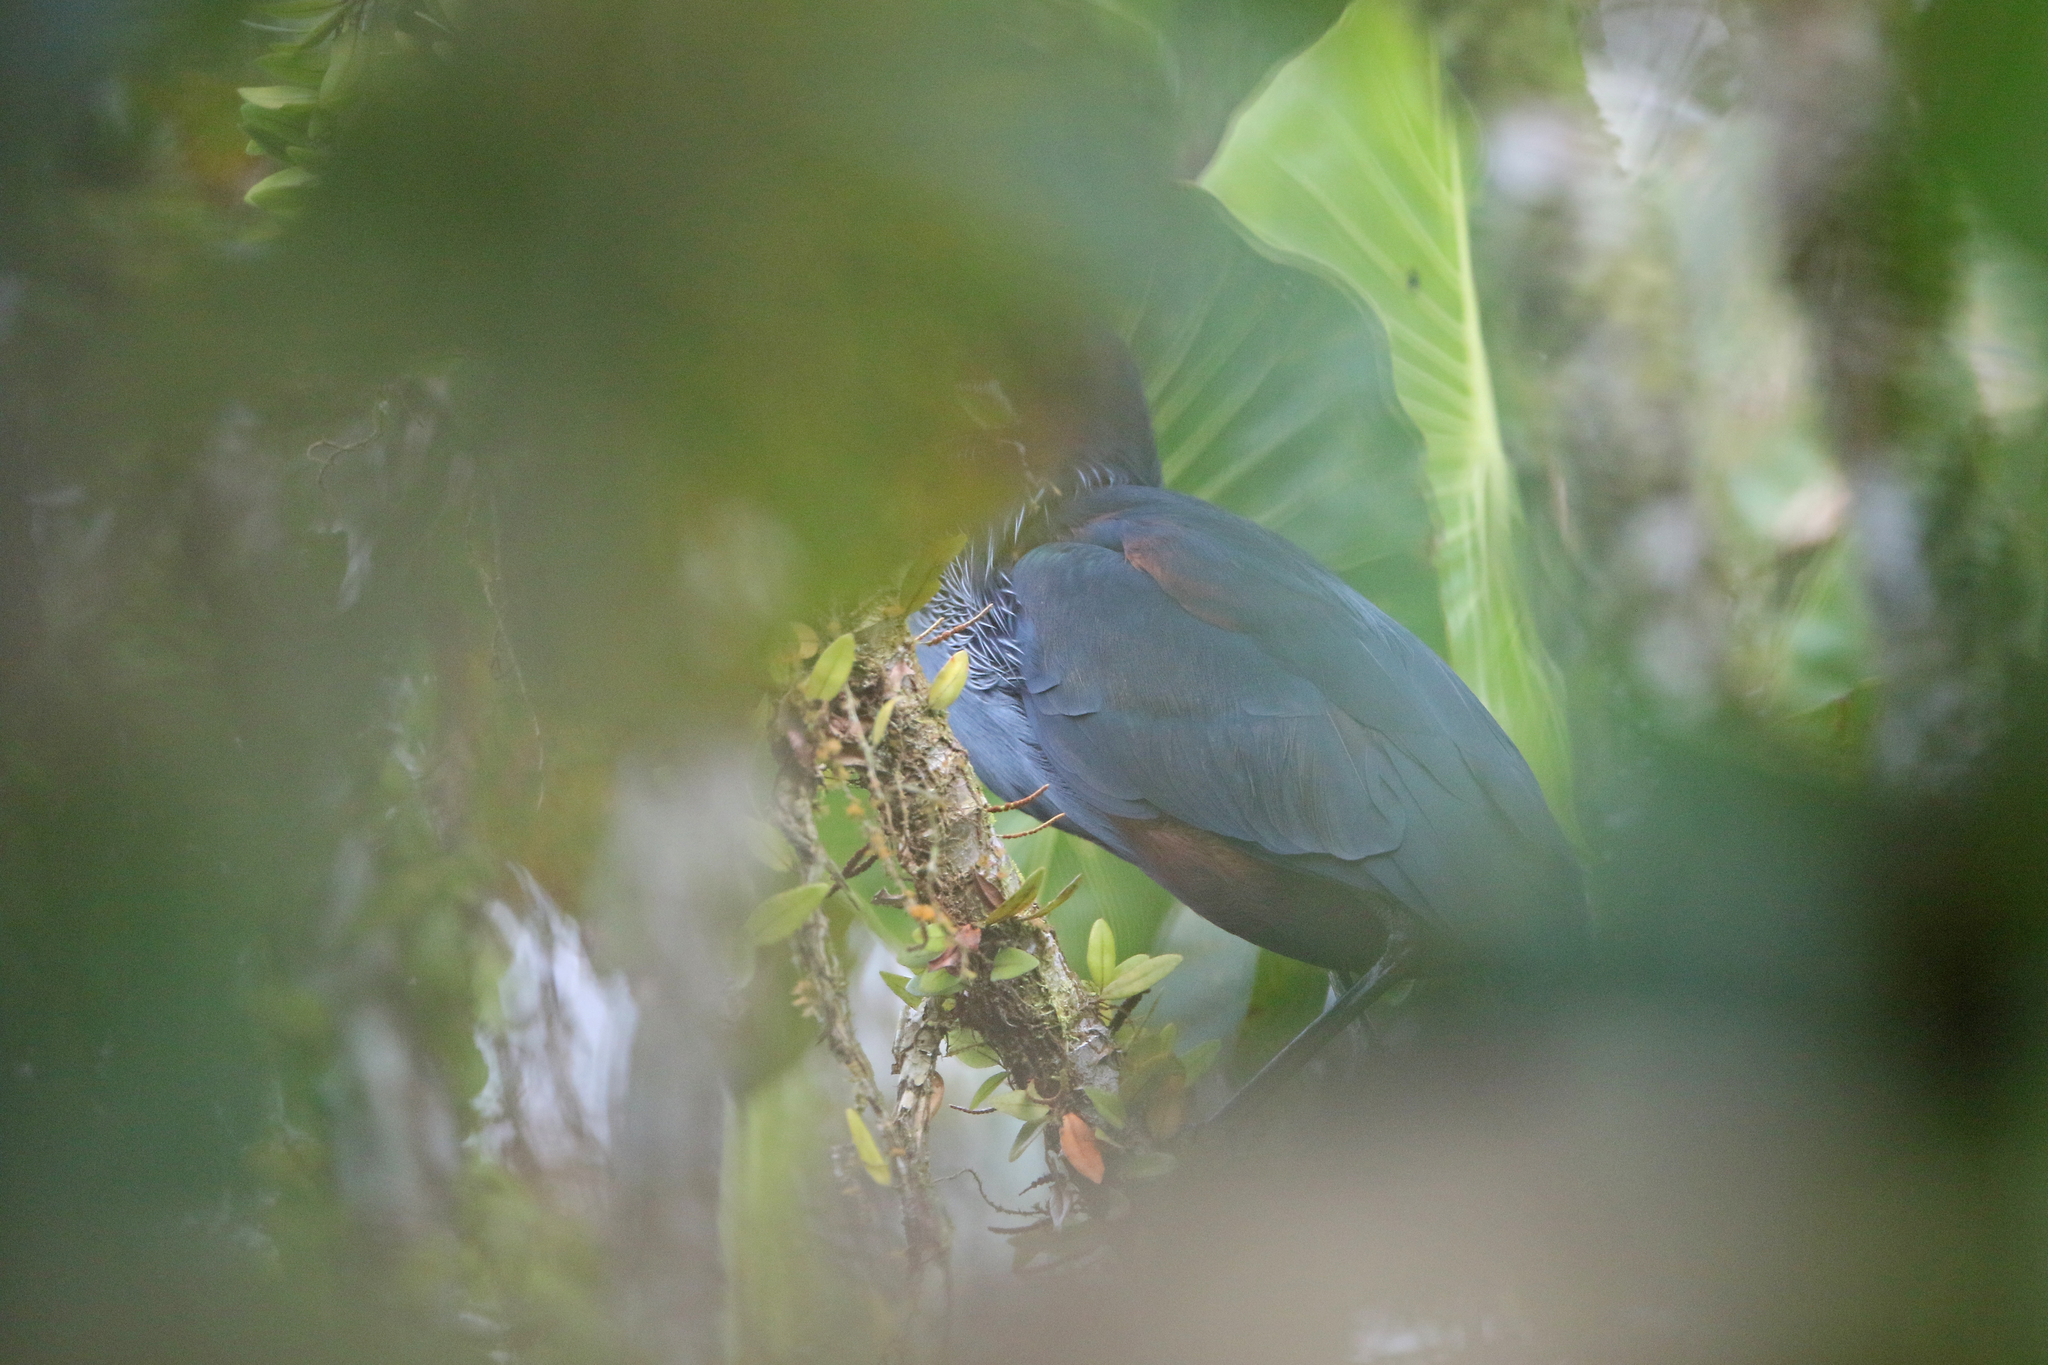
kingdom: Animalia
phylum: Chordata
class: Aves
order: Pelecaniformes
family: Ardeidae
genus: Agamia
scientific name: Agamia agami
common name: Agami heron
